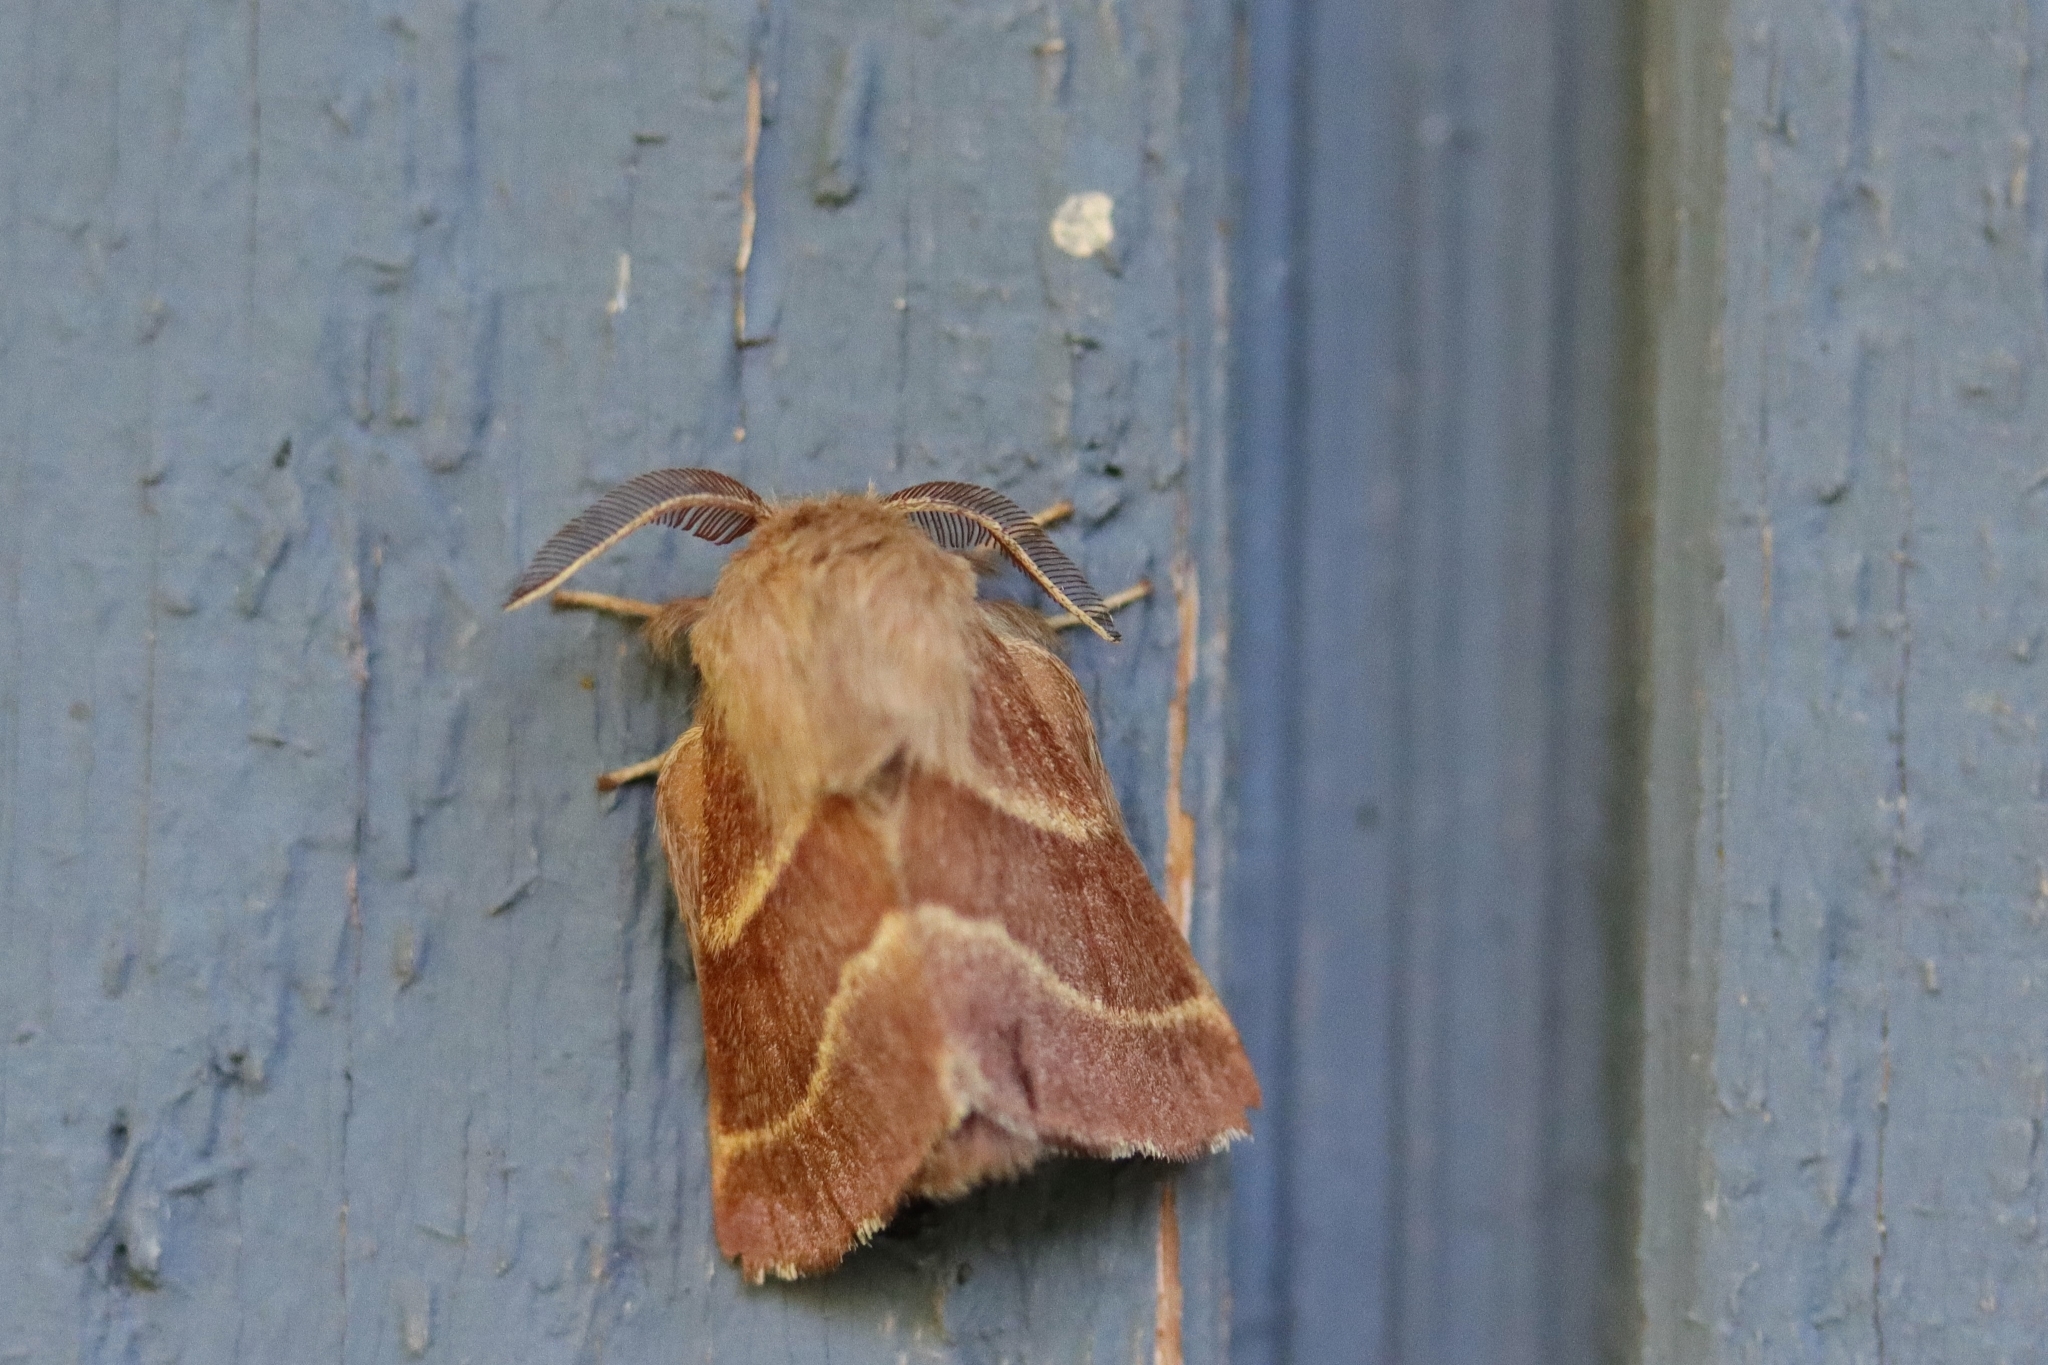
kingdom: Animalia
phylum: Arthropoda
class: Insecta
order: Lepidoptera
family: Lasiocampidae
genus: Malacosoma
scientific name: Malacosoma californica
